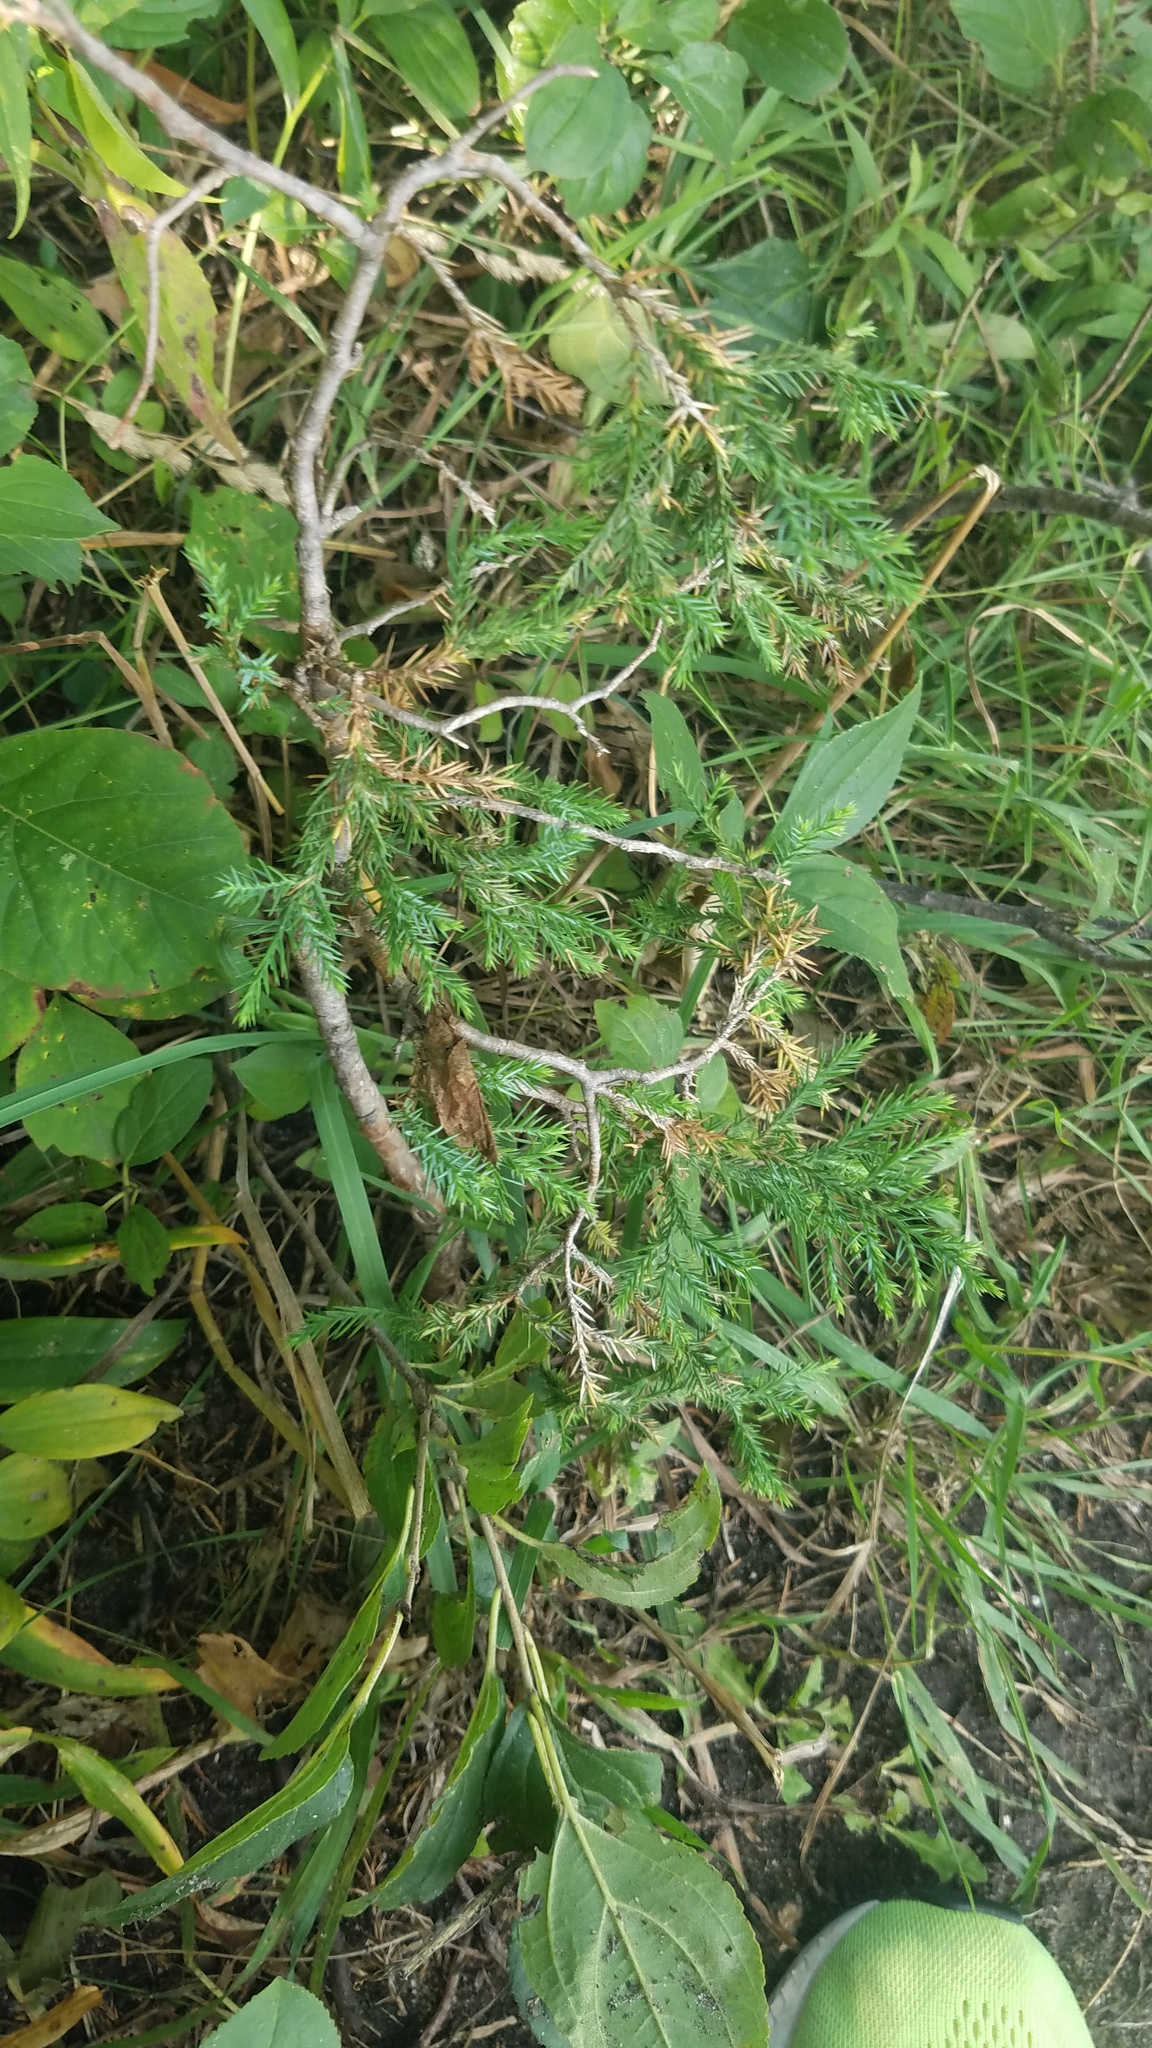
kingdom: Plantae
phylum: Tracheophyta
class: Pinopsida
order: Pinales
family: Cupressaceae
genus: Juniperus
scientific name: Juniperus communis
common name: Common juniper
